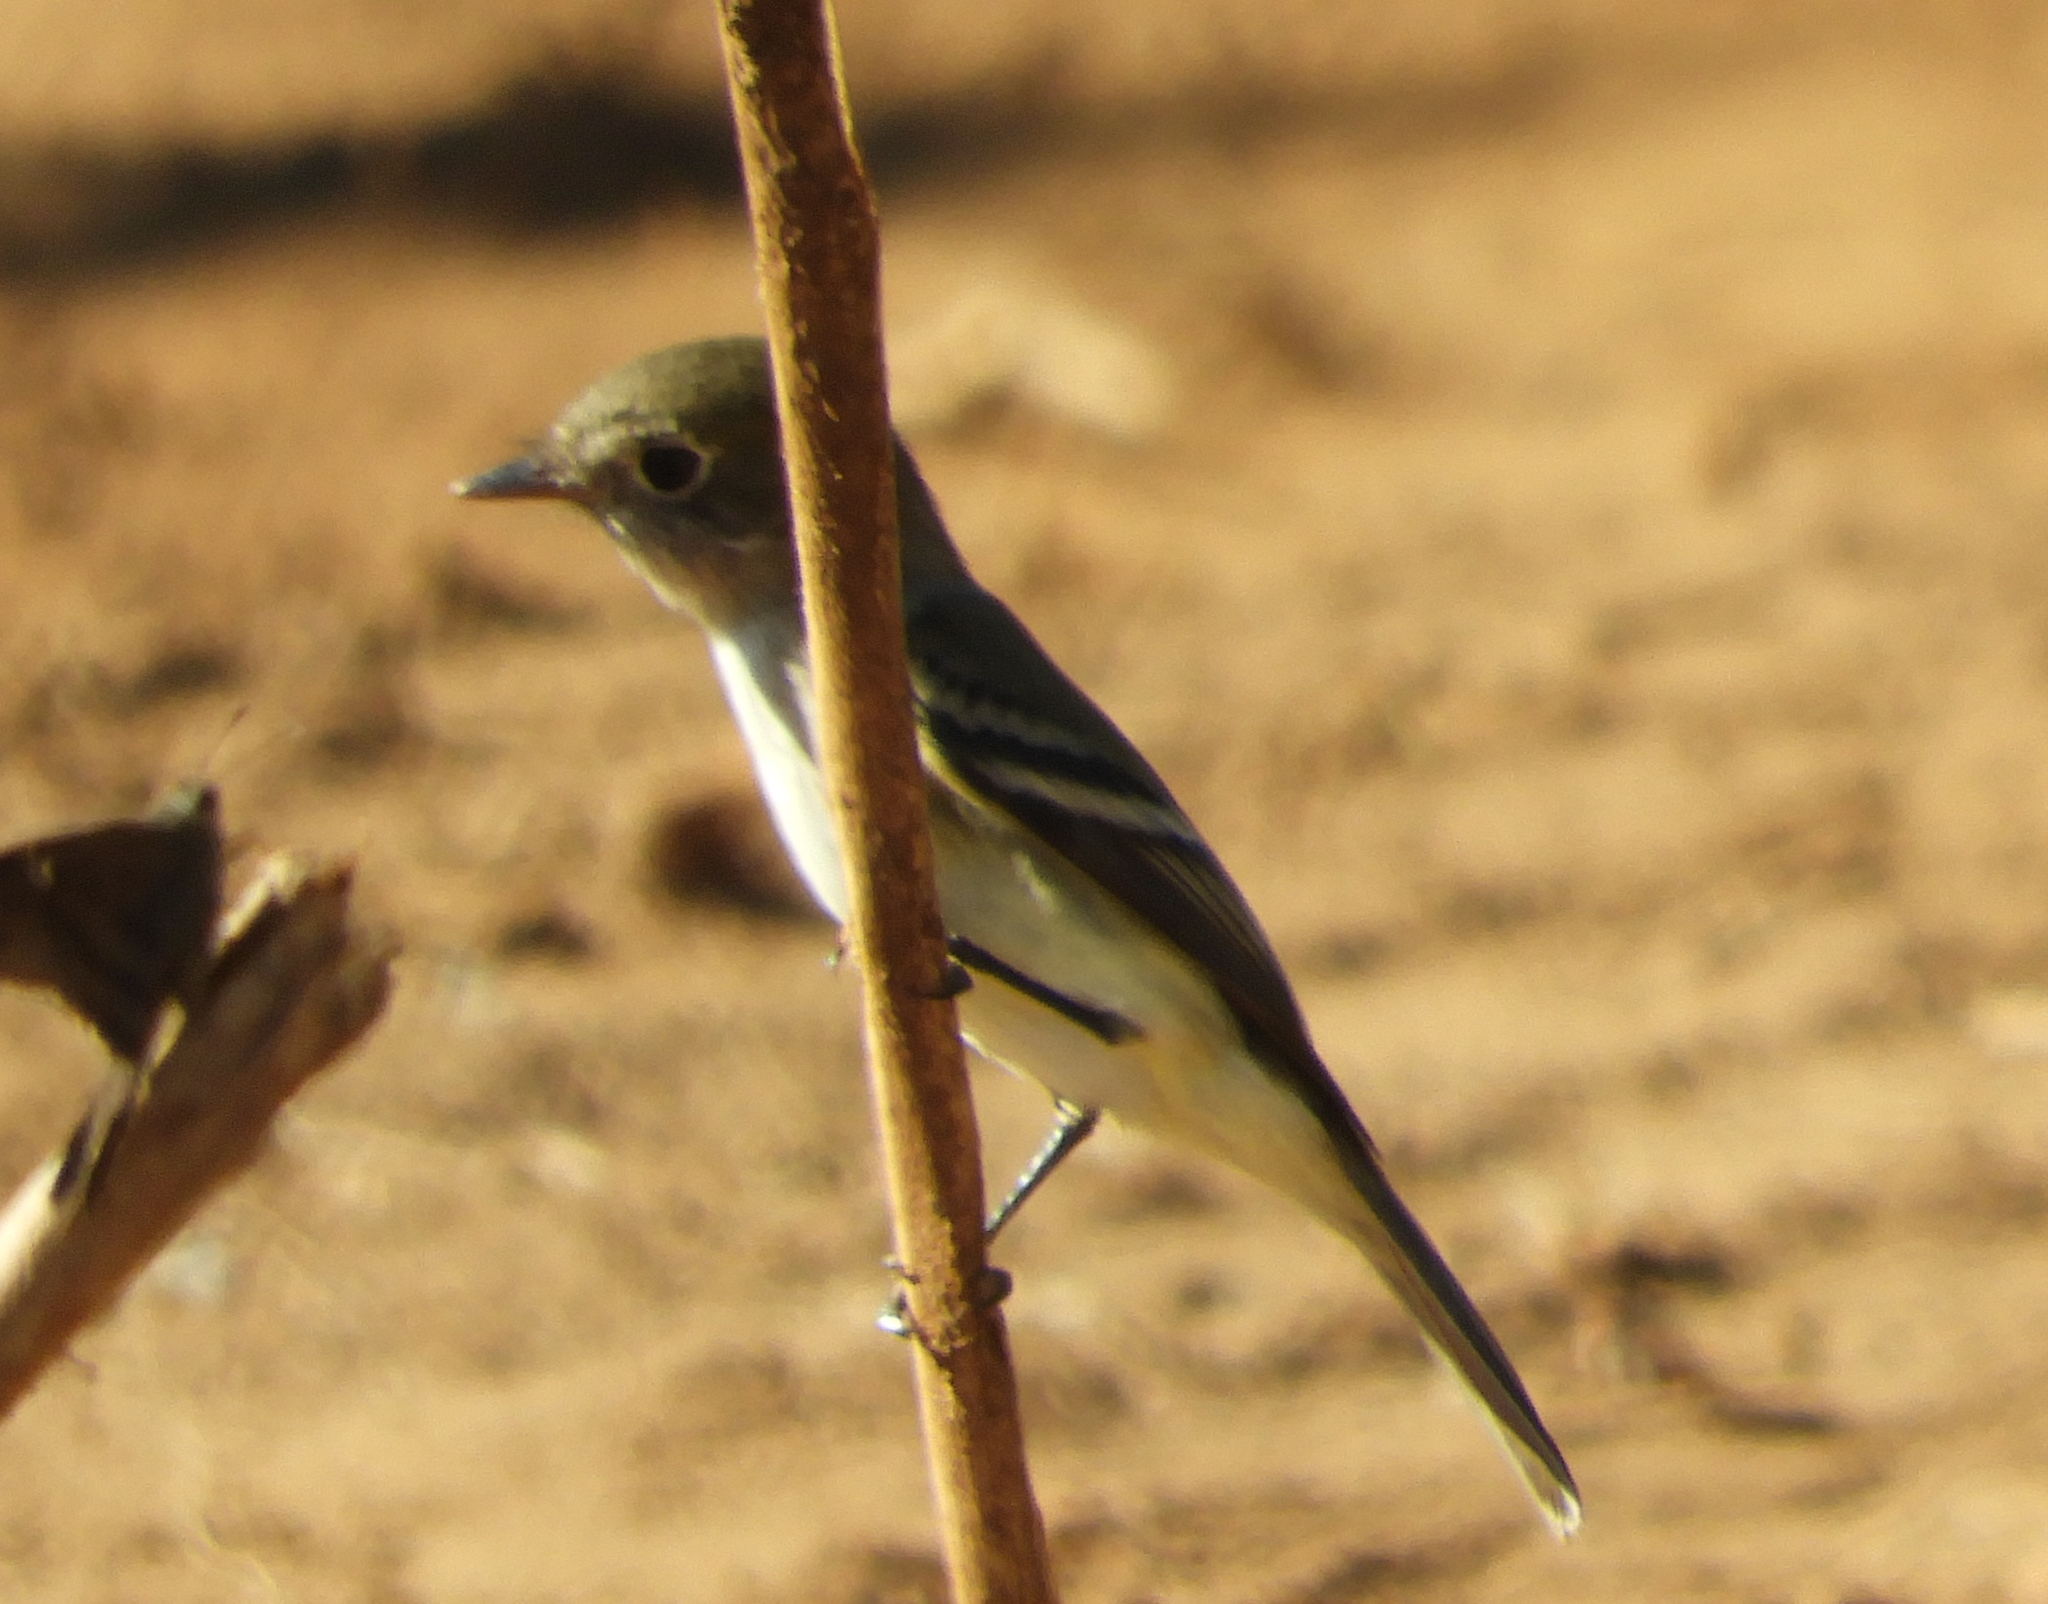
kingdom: Animalia
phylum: Chordata
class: Aves
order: Passeriformes
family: Tyrannidae
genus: Empidonax
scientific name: Empidonax
